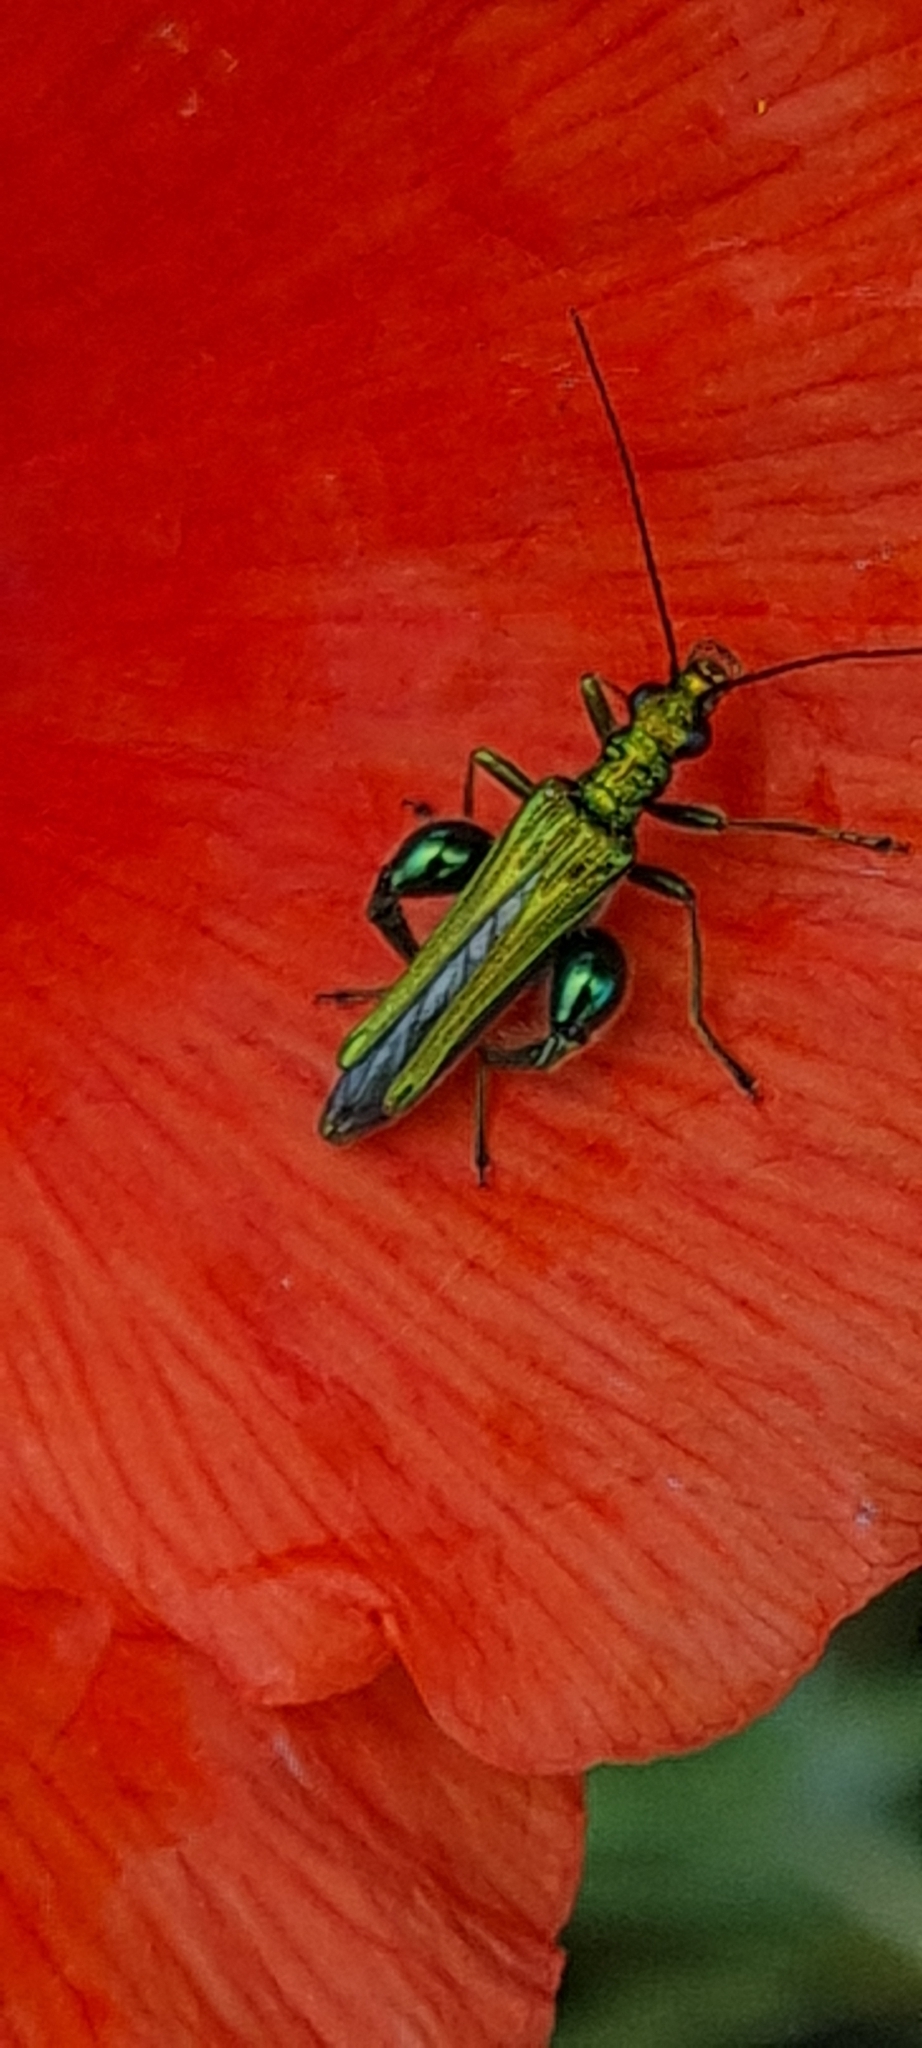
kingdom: Animalia
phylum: Arthropoda
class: Insecta
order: Coleoptera
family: Oedemeridae
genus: Oedemera
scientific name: Oedemera nobilis
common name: Swollen-thighed beetle
